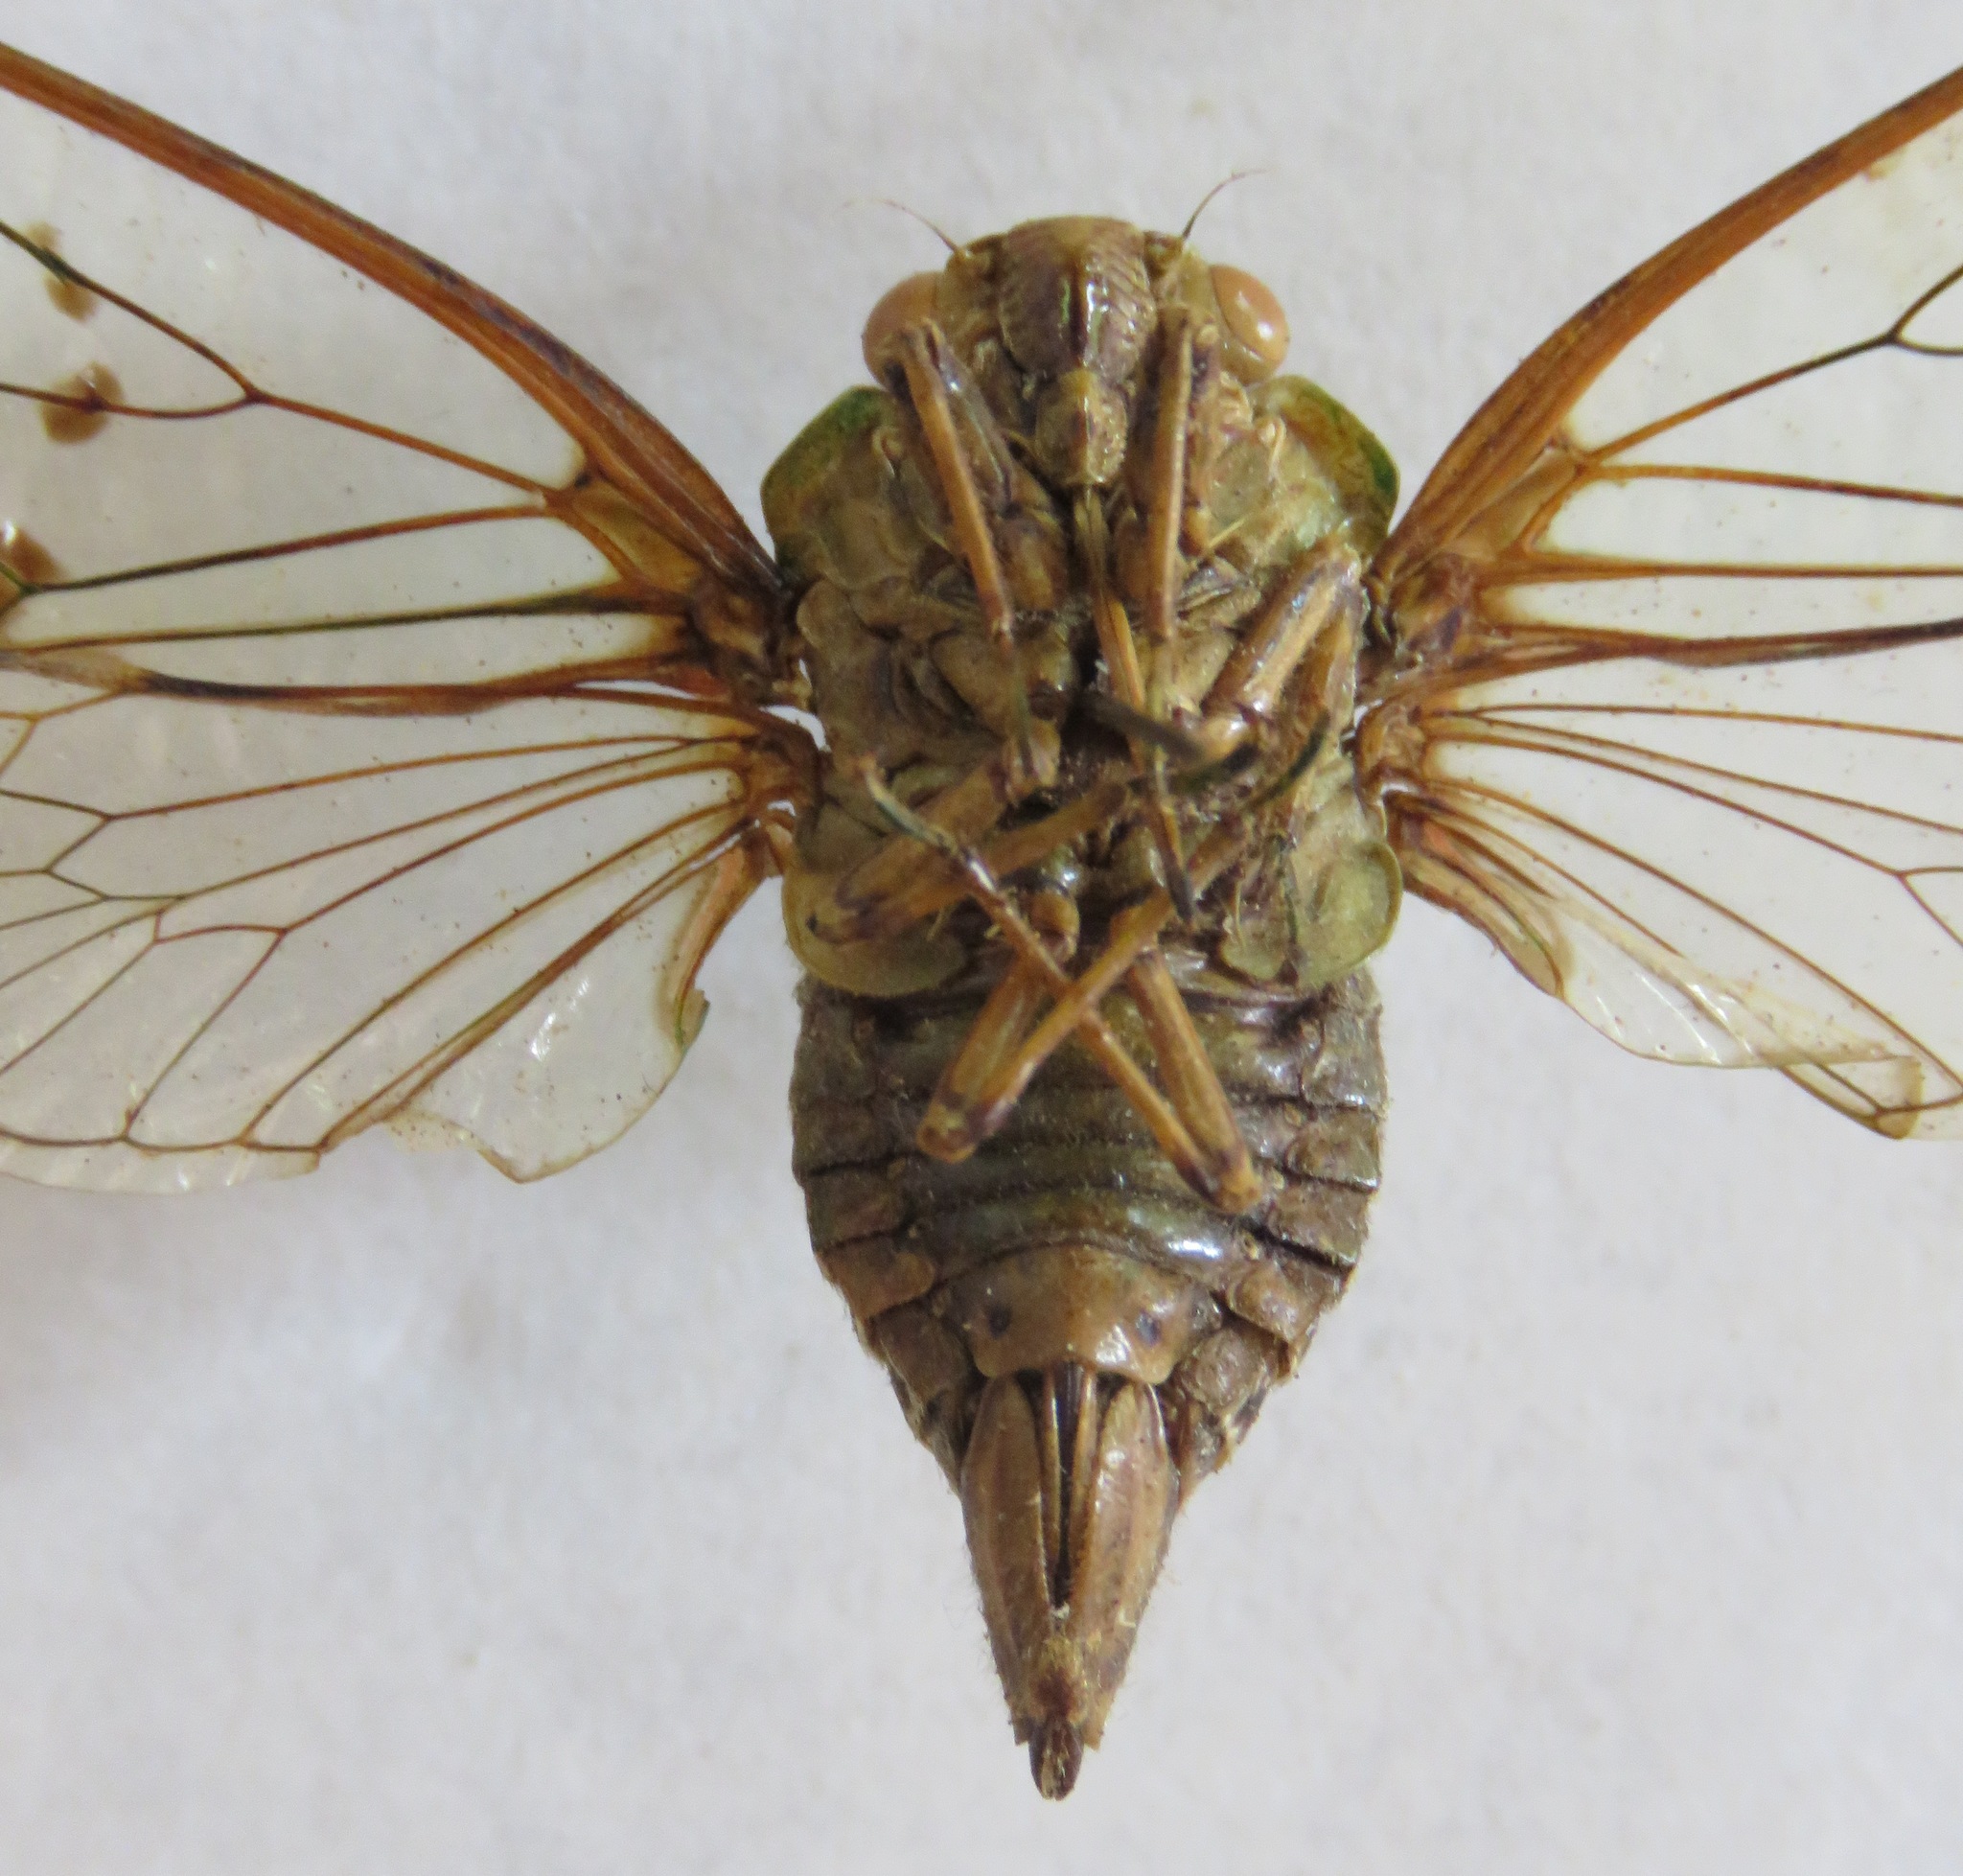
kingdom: Animalia
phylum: Arthropoda
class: Insecta
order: Hemiptera
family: Cicadidae
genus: Procollina
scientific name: Procollina nicaraguaensis
